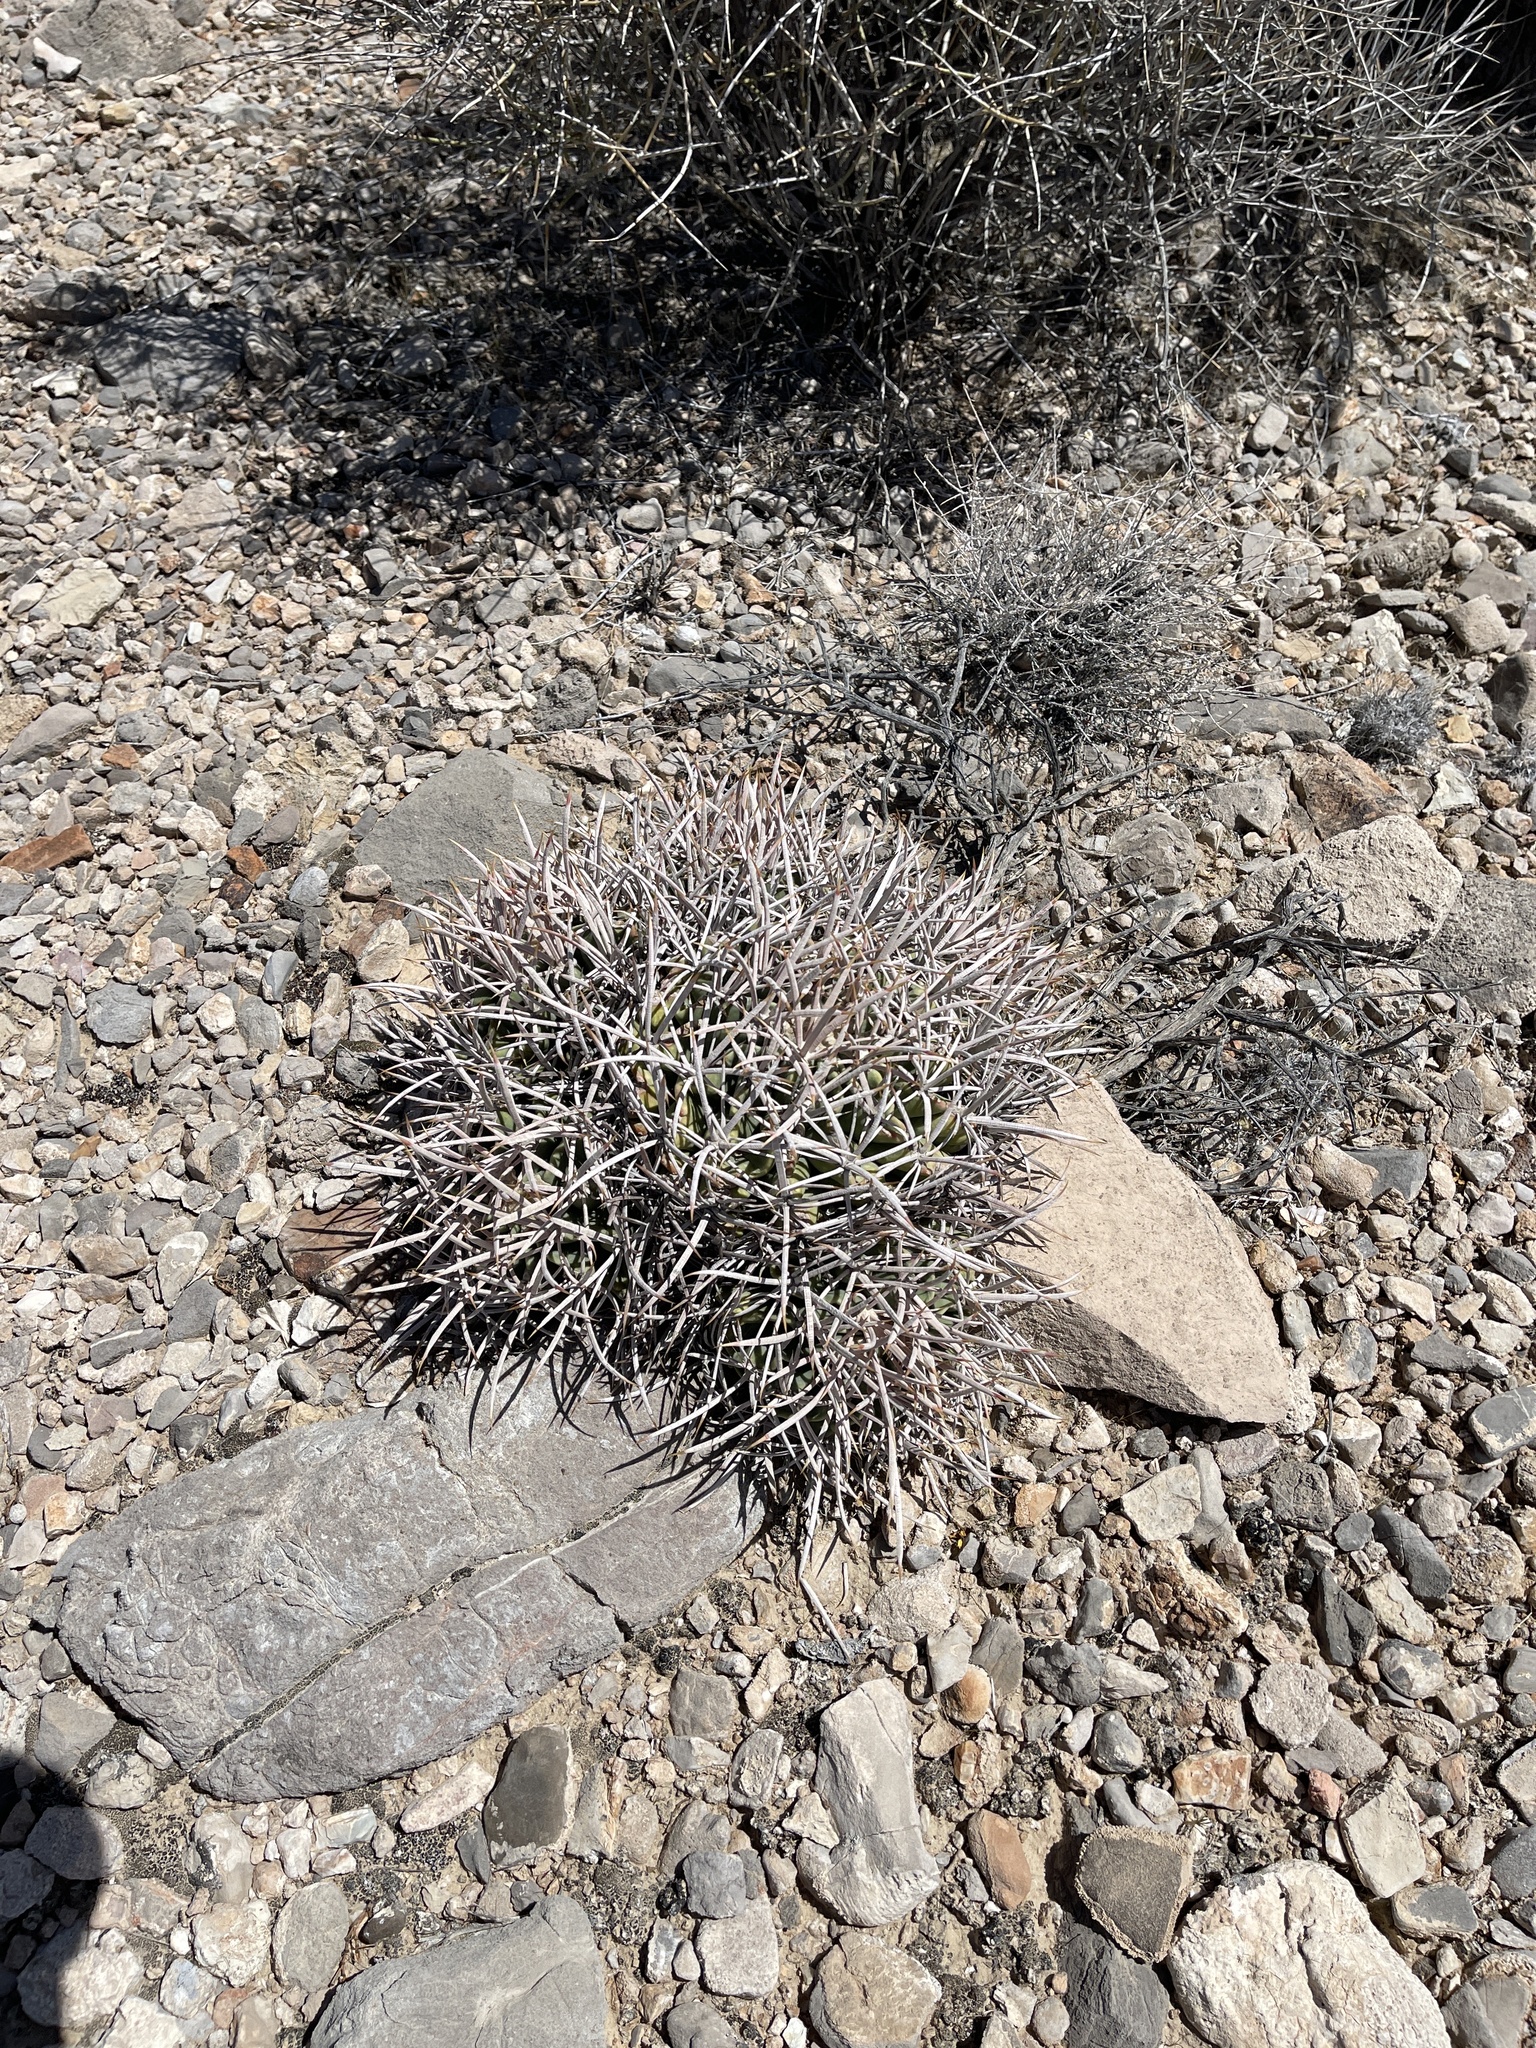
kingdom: Plantae
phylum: Tracheophyta
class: Magnoliopsida
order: Caryophyllales
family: Cactaceae
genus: Echinocactus
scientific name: Echinocactus polycephalus
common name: Cottontop cactus
